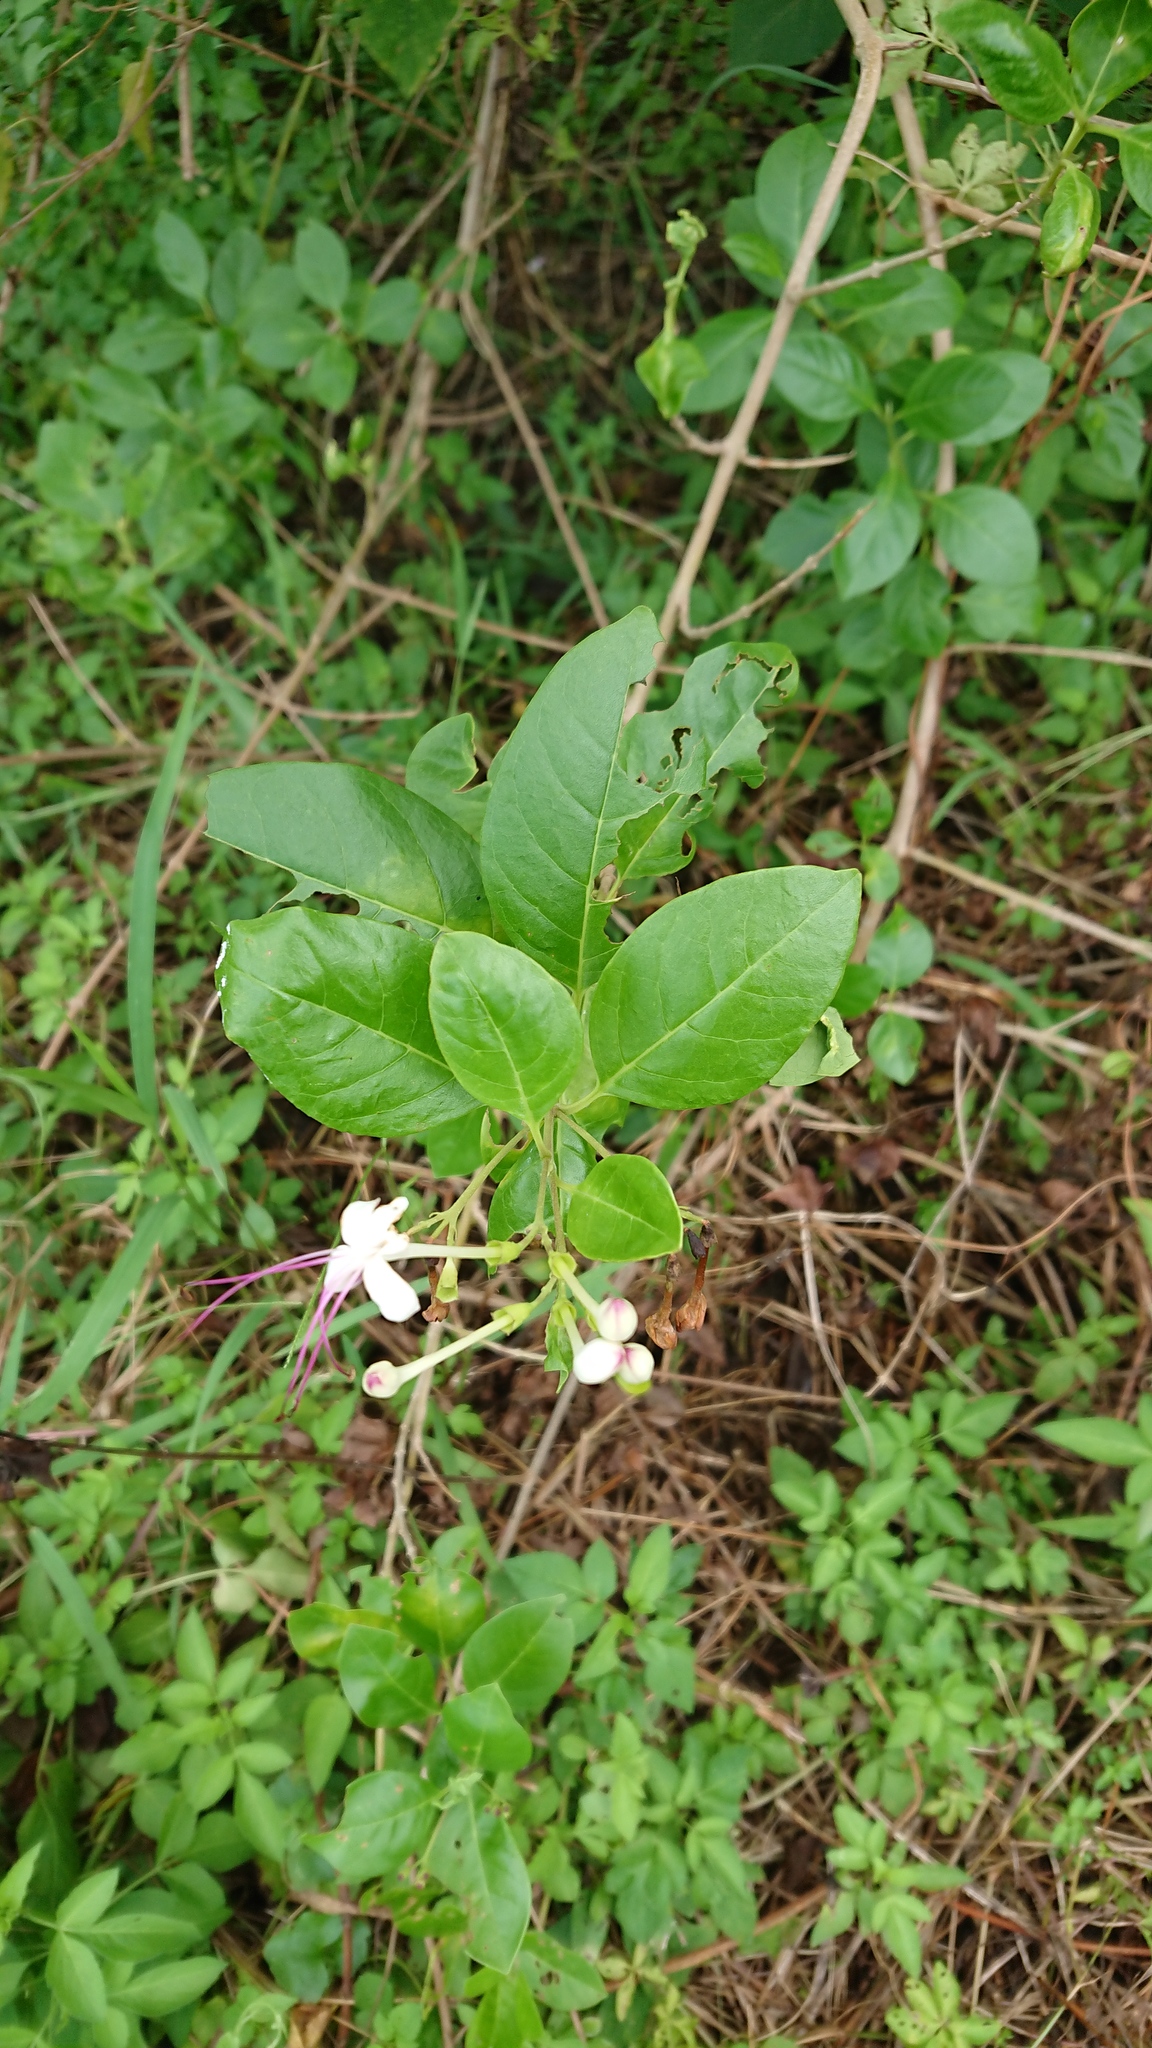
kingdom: Plantae
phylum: Tracheophyta
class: Magnoliopsida
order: Lamiales
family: Lamiaceae
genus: Volkameria
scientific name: Volkameria inermis
